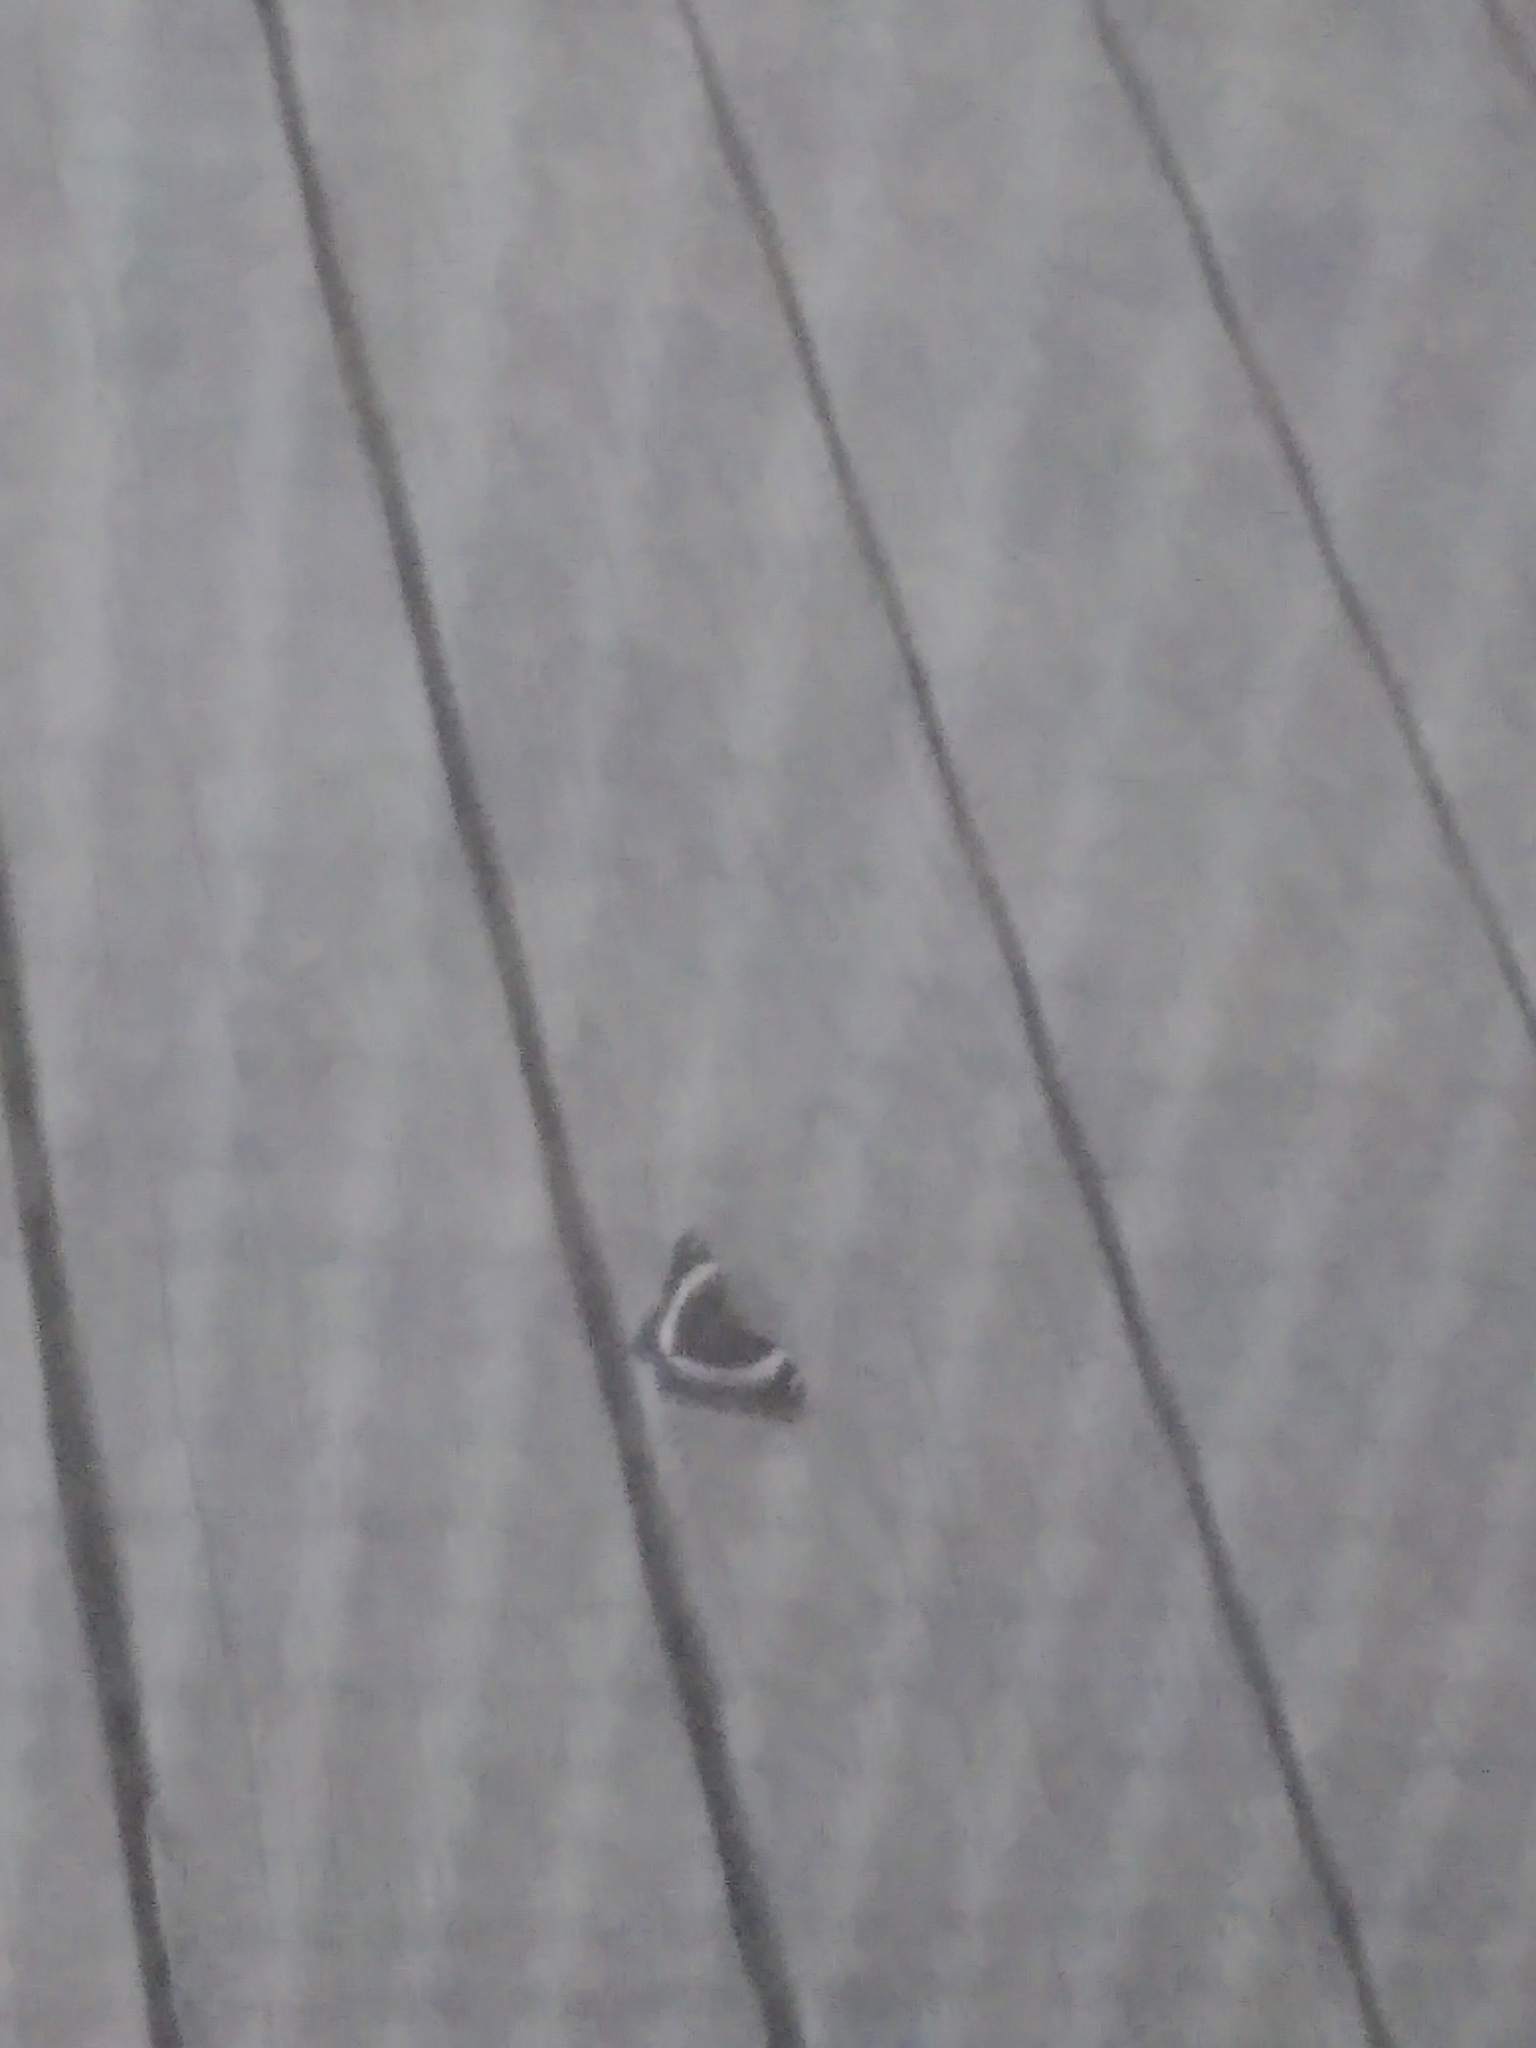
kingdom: Animalia
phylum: Arthropoda
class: Insecta
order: Lepidoptera
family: Nymphalidae
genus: Limenitis
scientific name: Limenitis arthemis
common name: Red-spotted admiral
